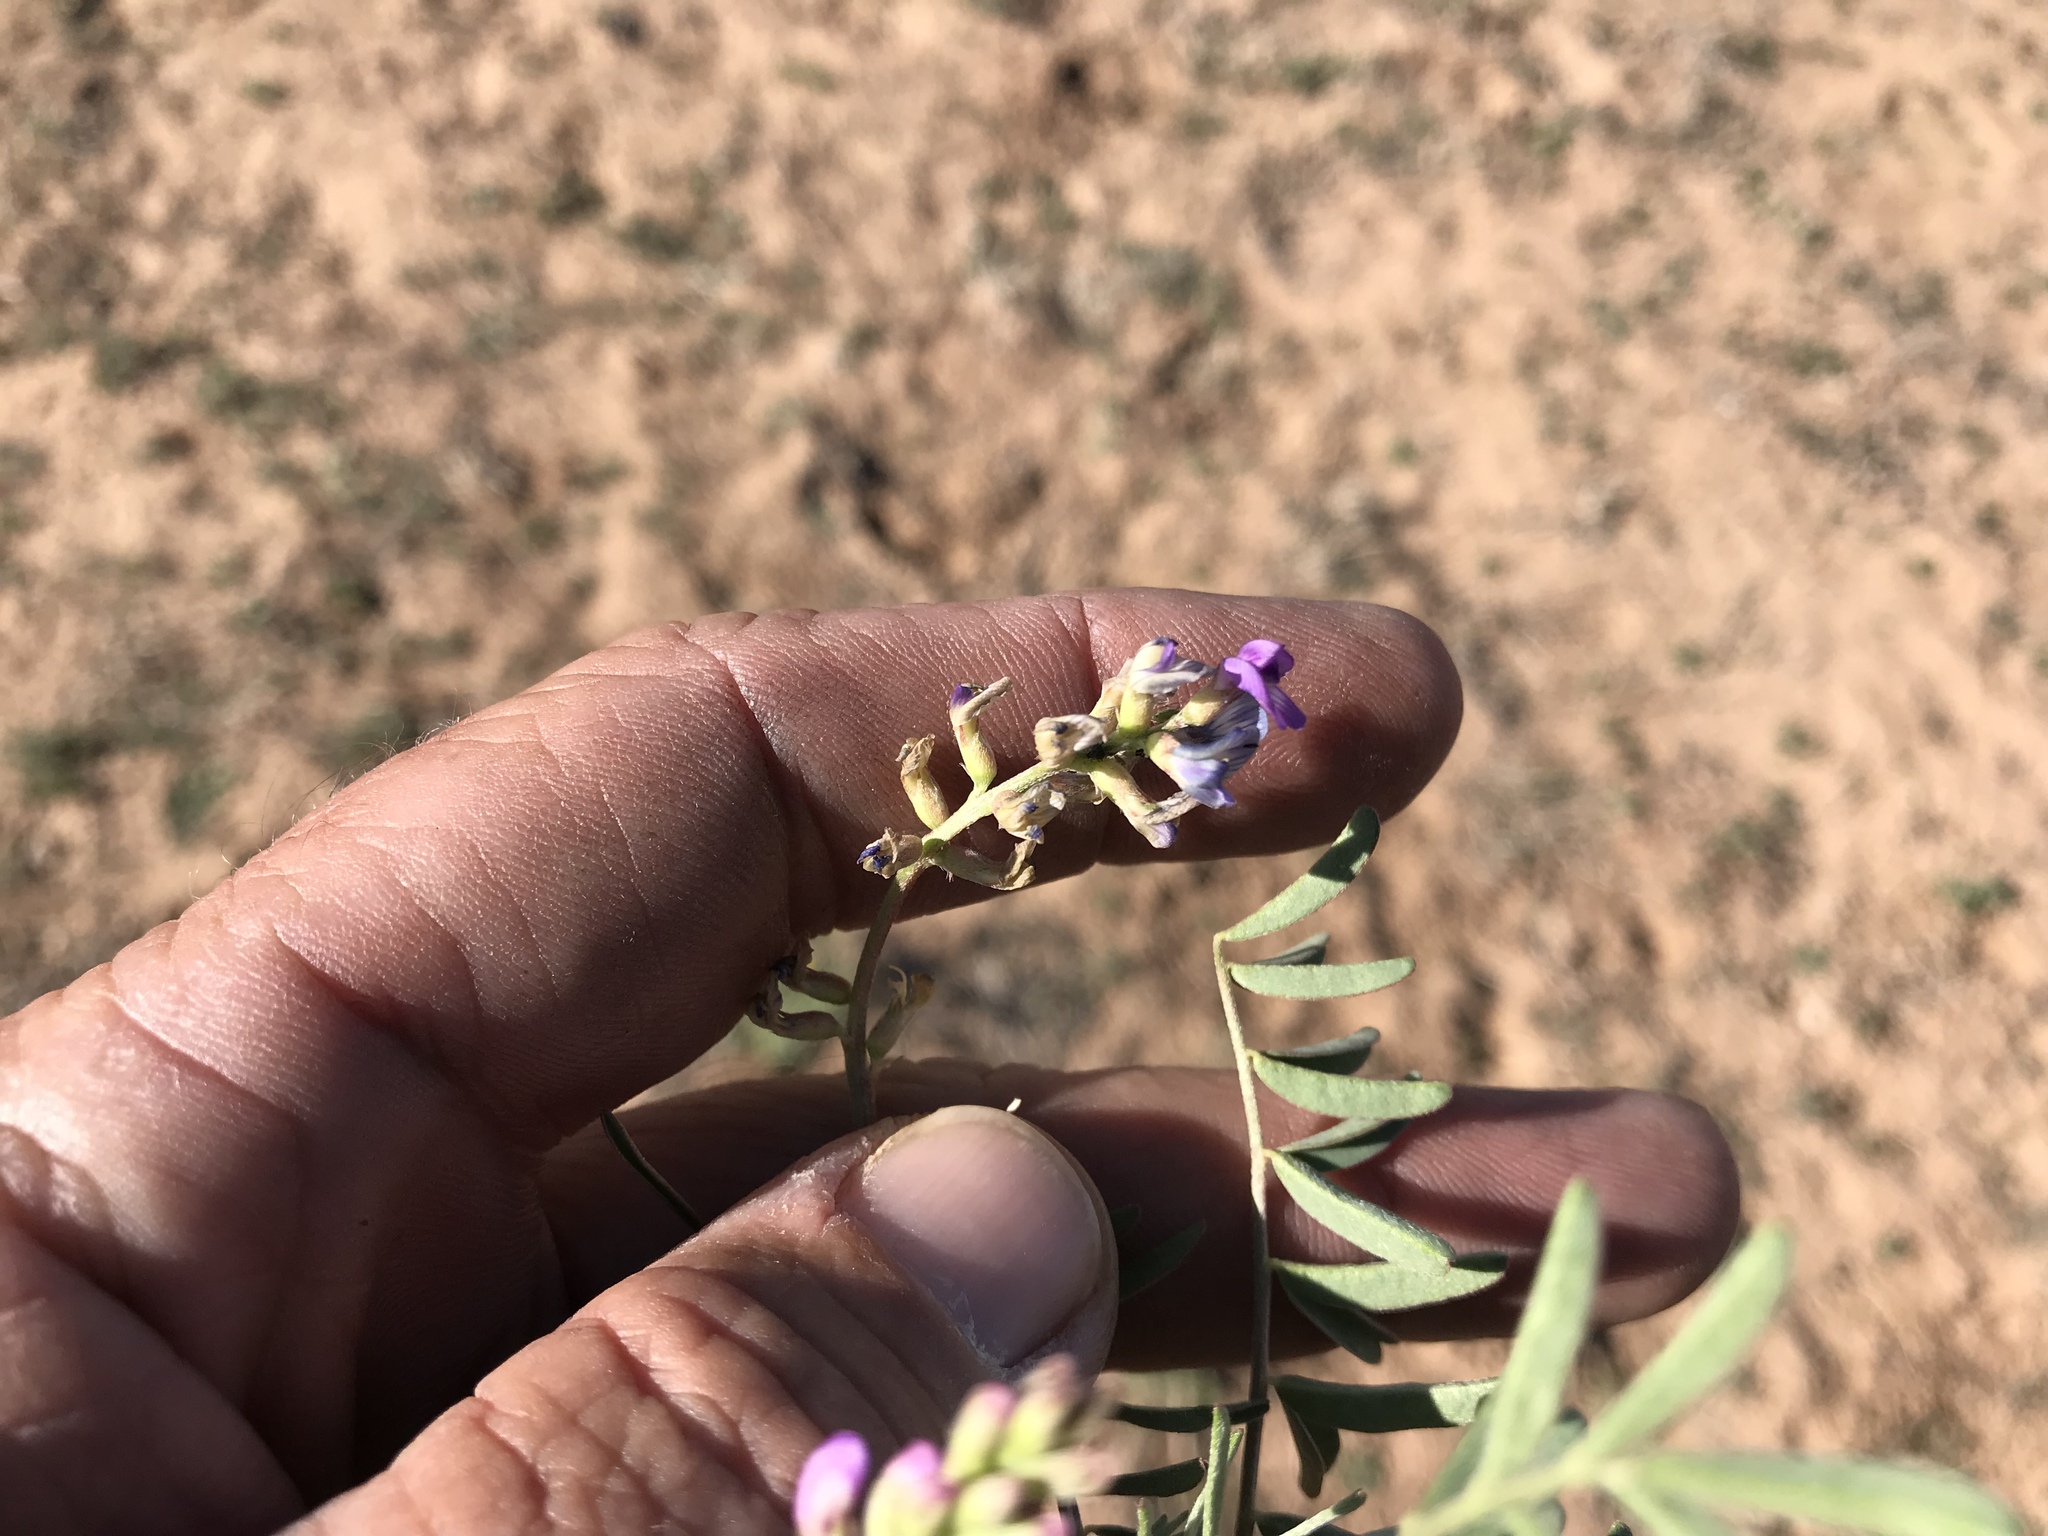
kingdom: Plantae
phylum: Tracheophyta
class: Magnoliopsida
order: Fabales
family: Fabaceae
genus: Astragalus
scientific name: Astragalus allochrous
